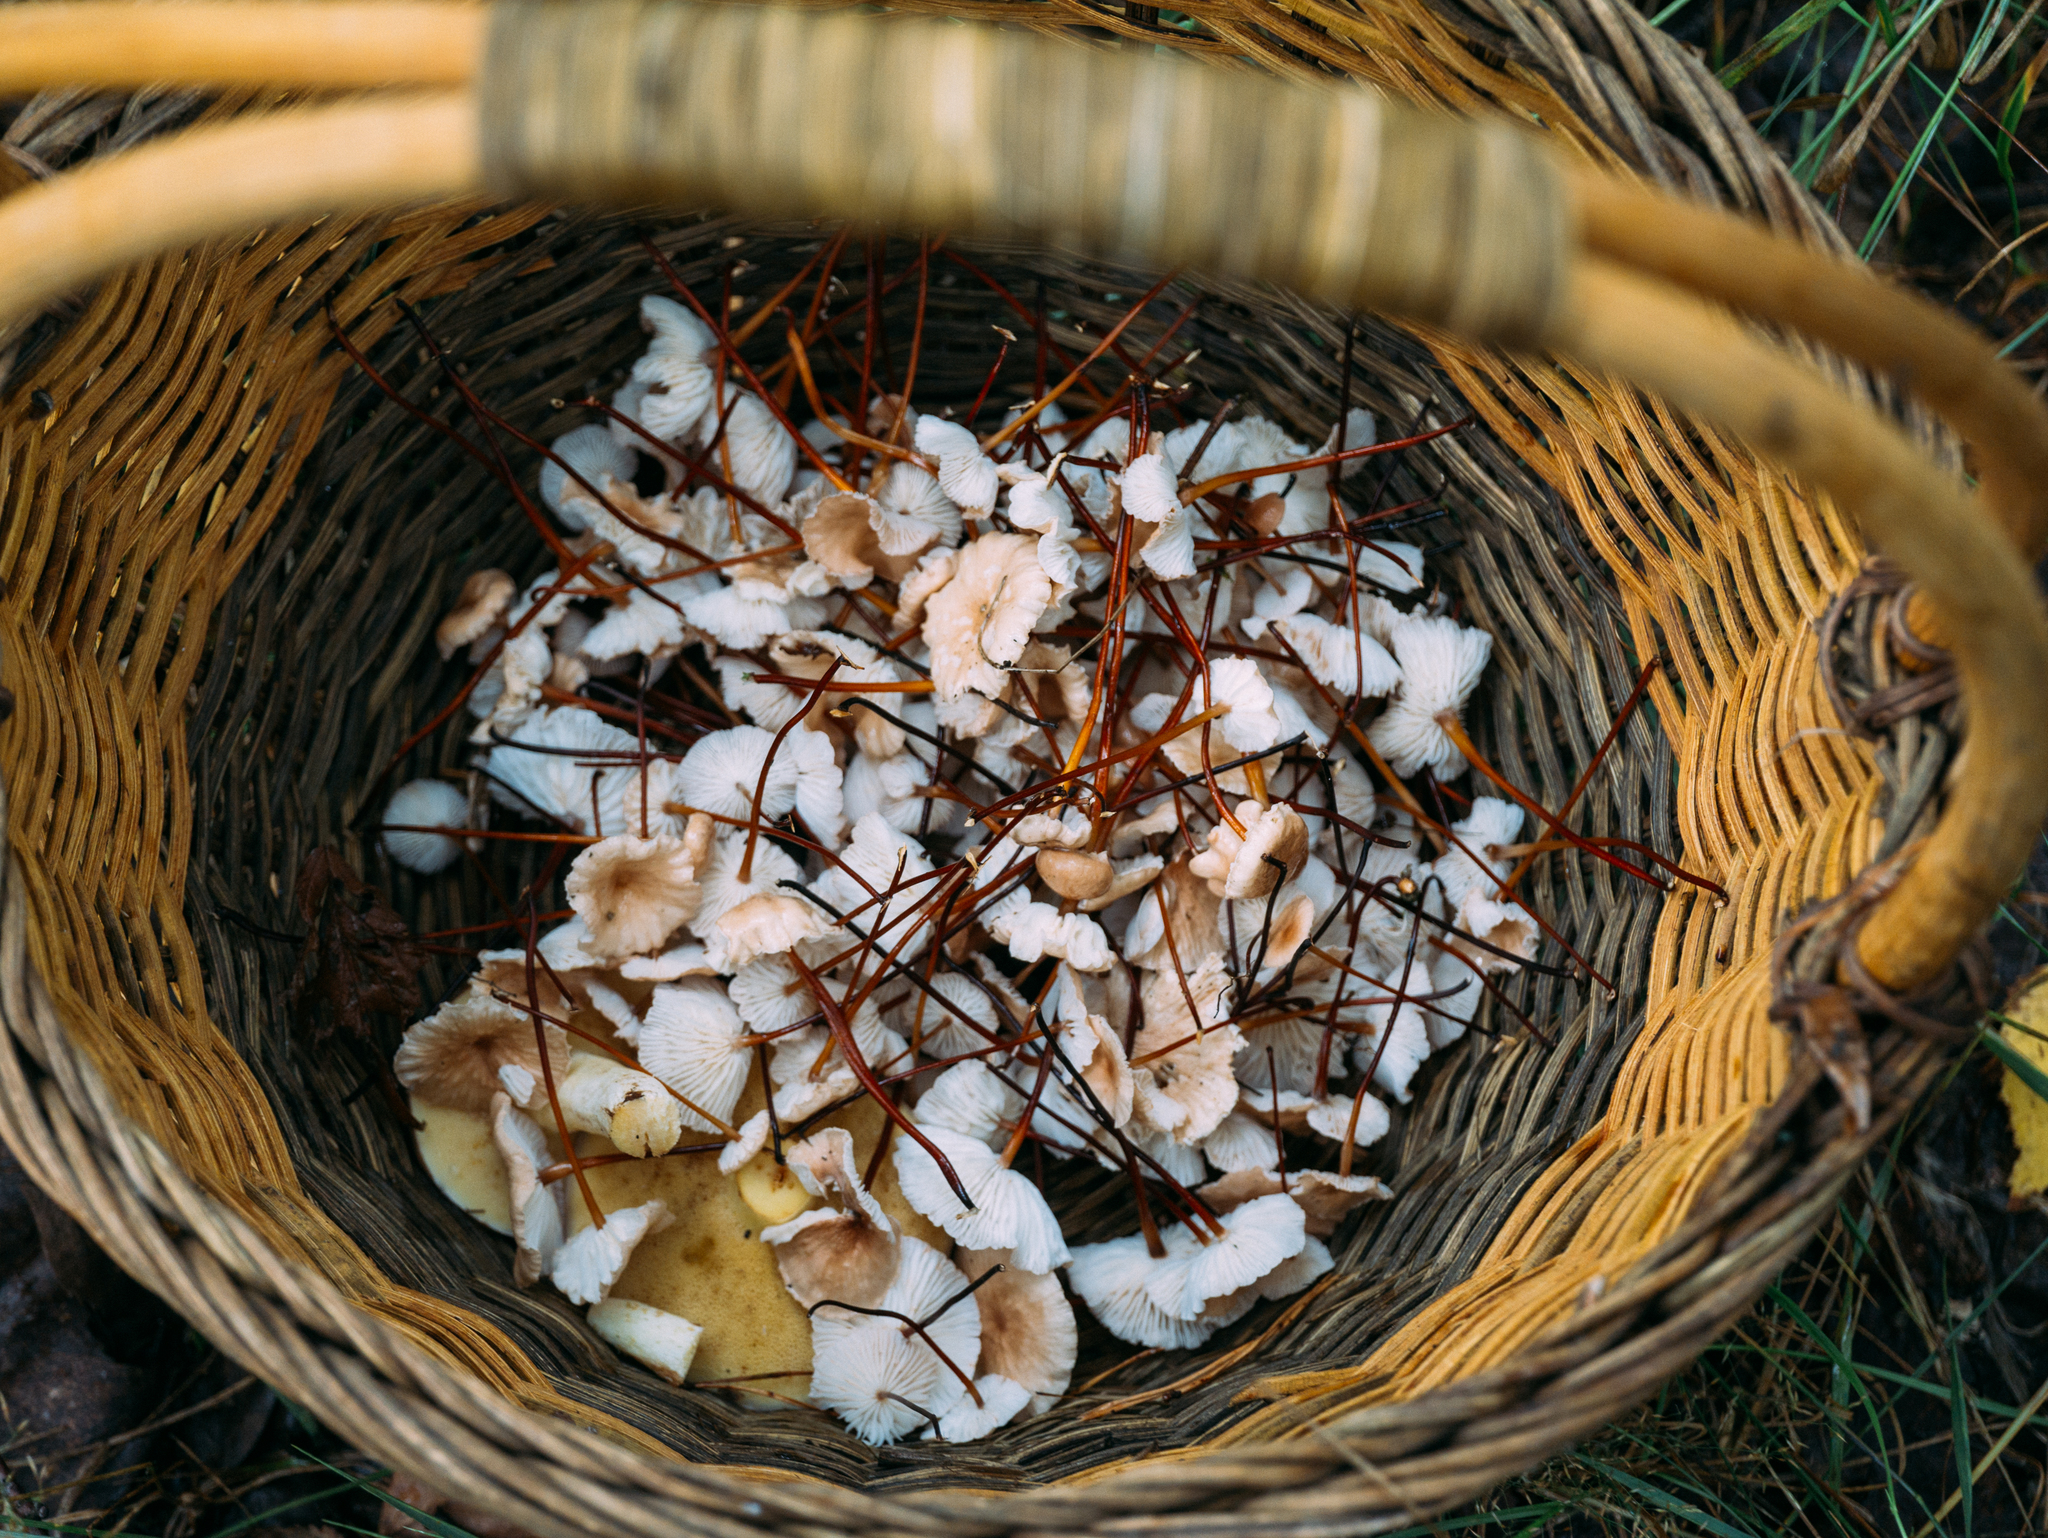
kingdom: Fungi
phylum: Basidiomycota
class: Agaricomycetes
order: Agaricales
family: Omphalotaceae
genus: Mycetinis
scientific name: Mycetinis scorodonius
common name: Vampires bane
